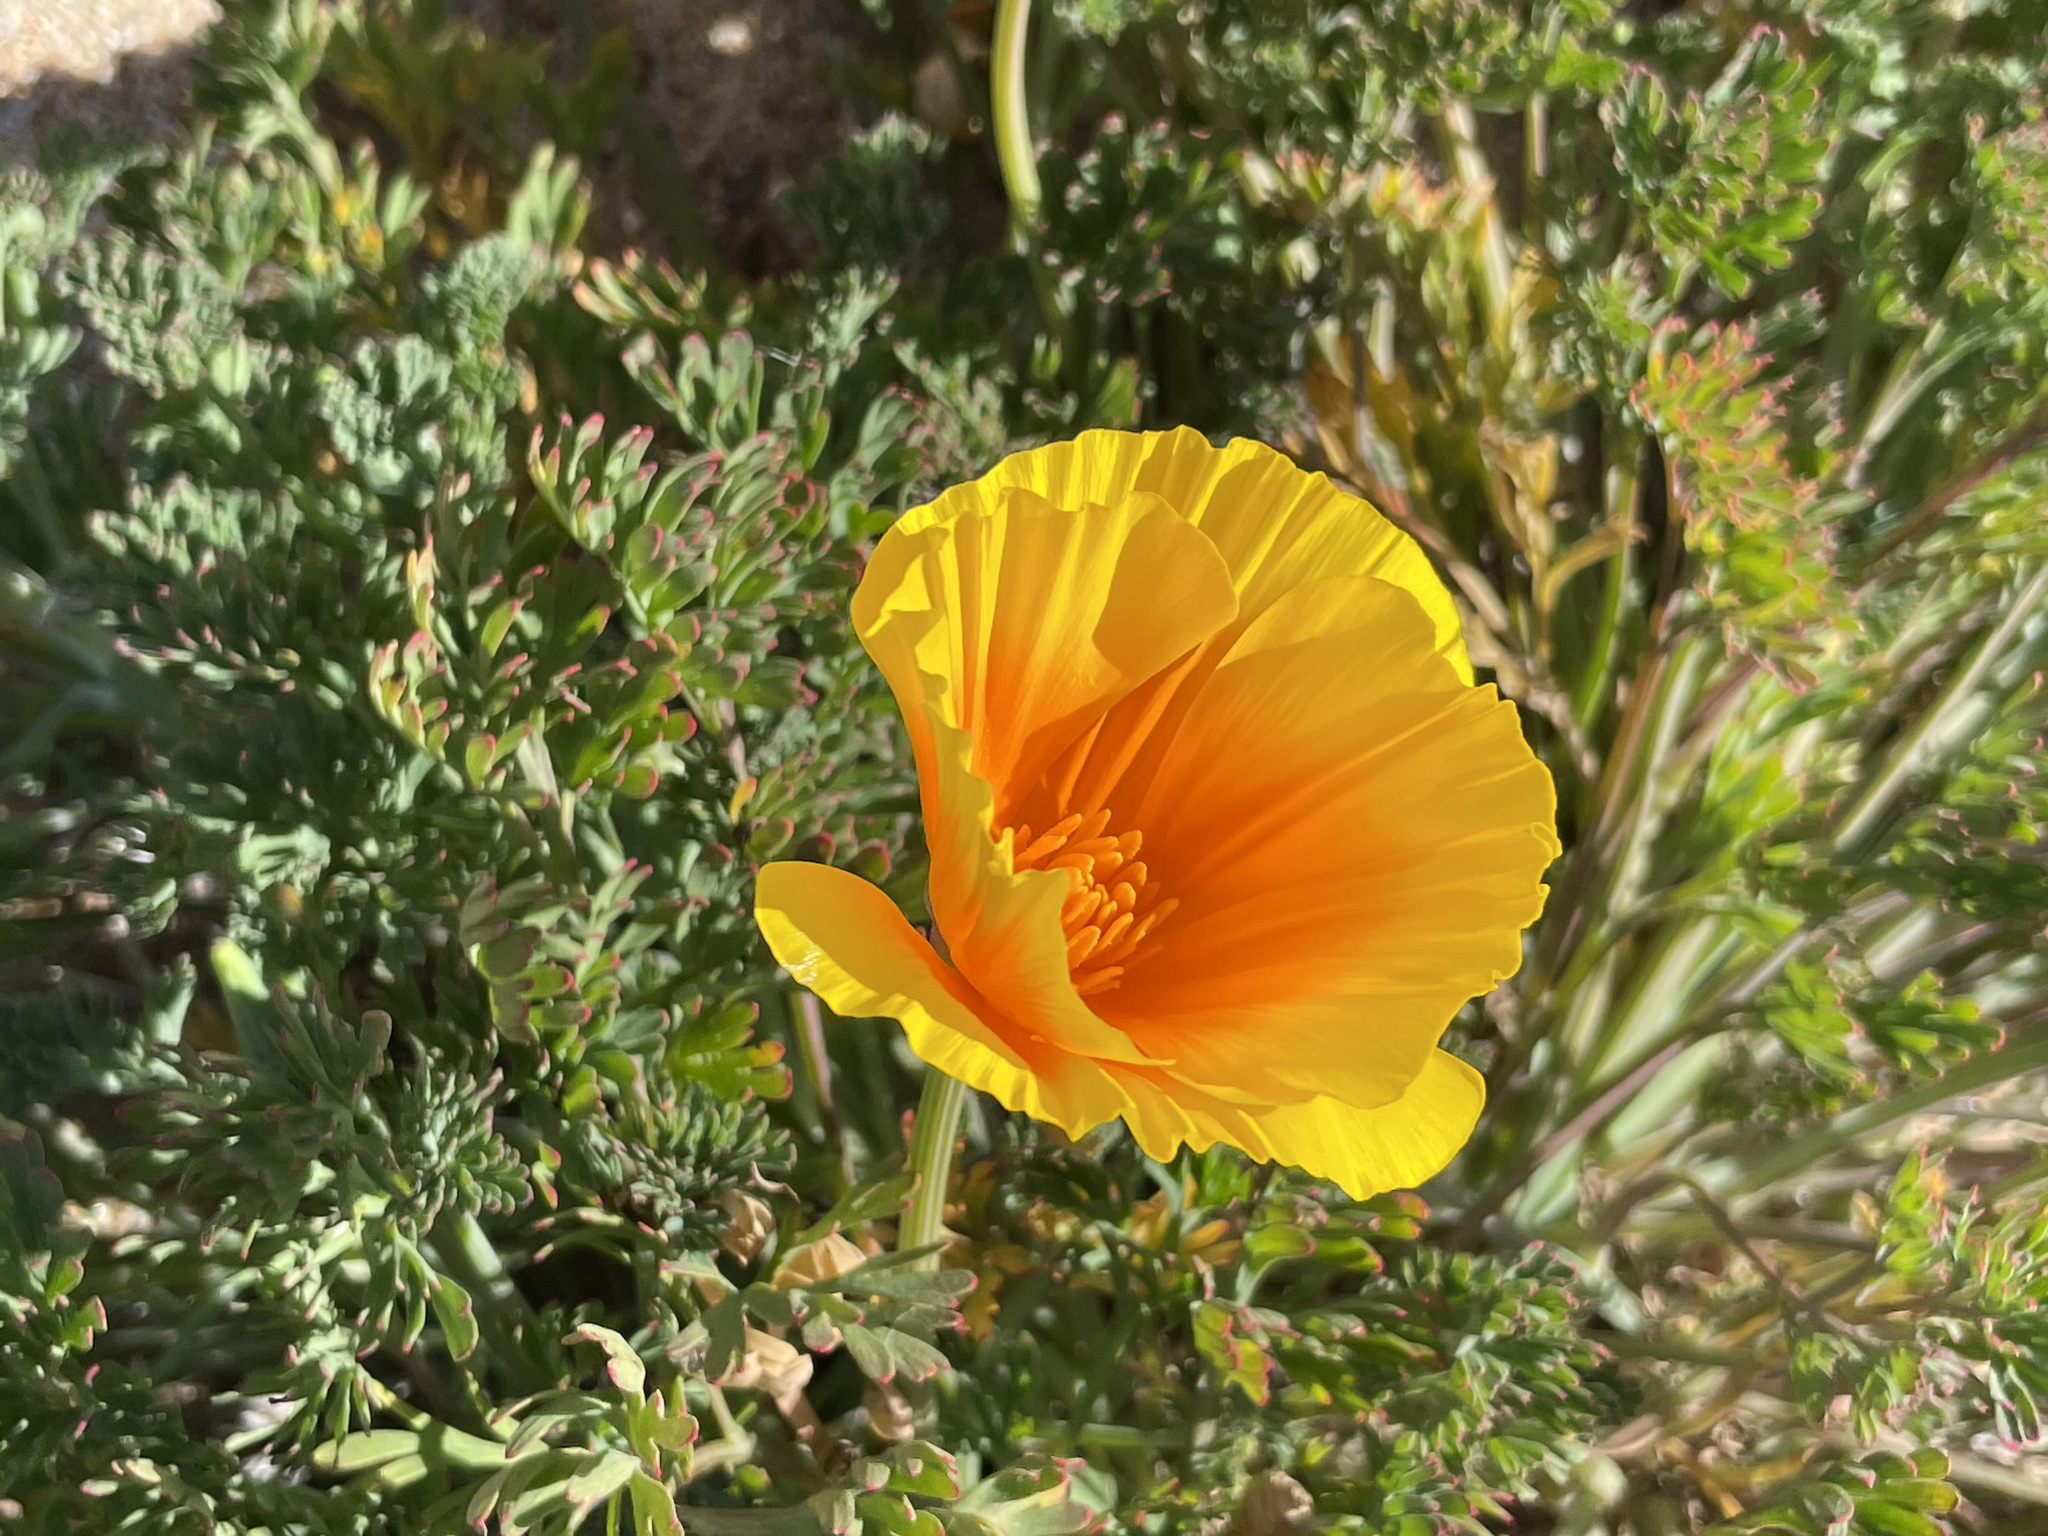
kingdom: Plantae
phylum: Tracheophyta
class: Magnoliopsida
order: Ranunculales
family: Papaveraceae
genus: Eschscholzia
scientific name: Eschscholzia californica
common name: California poppy
